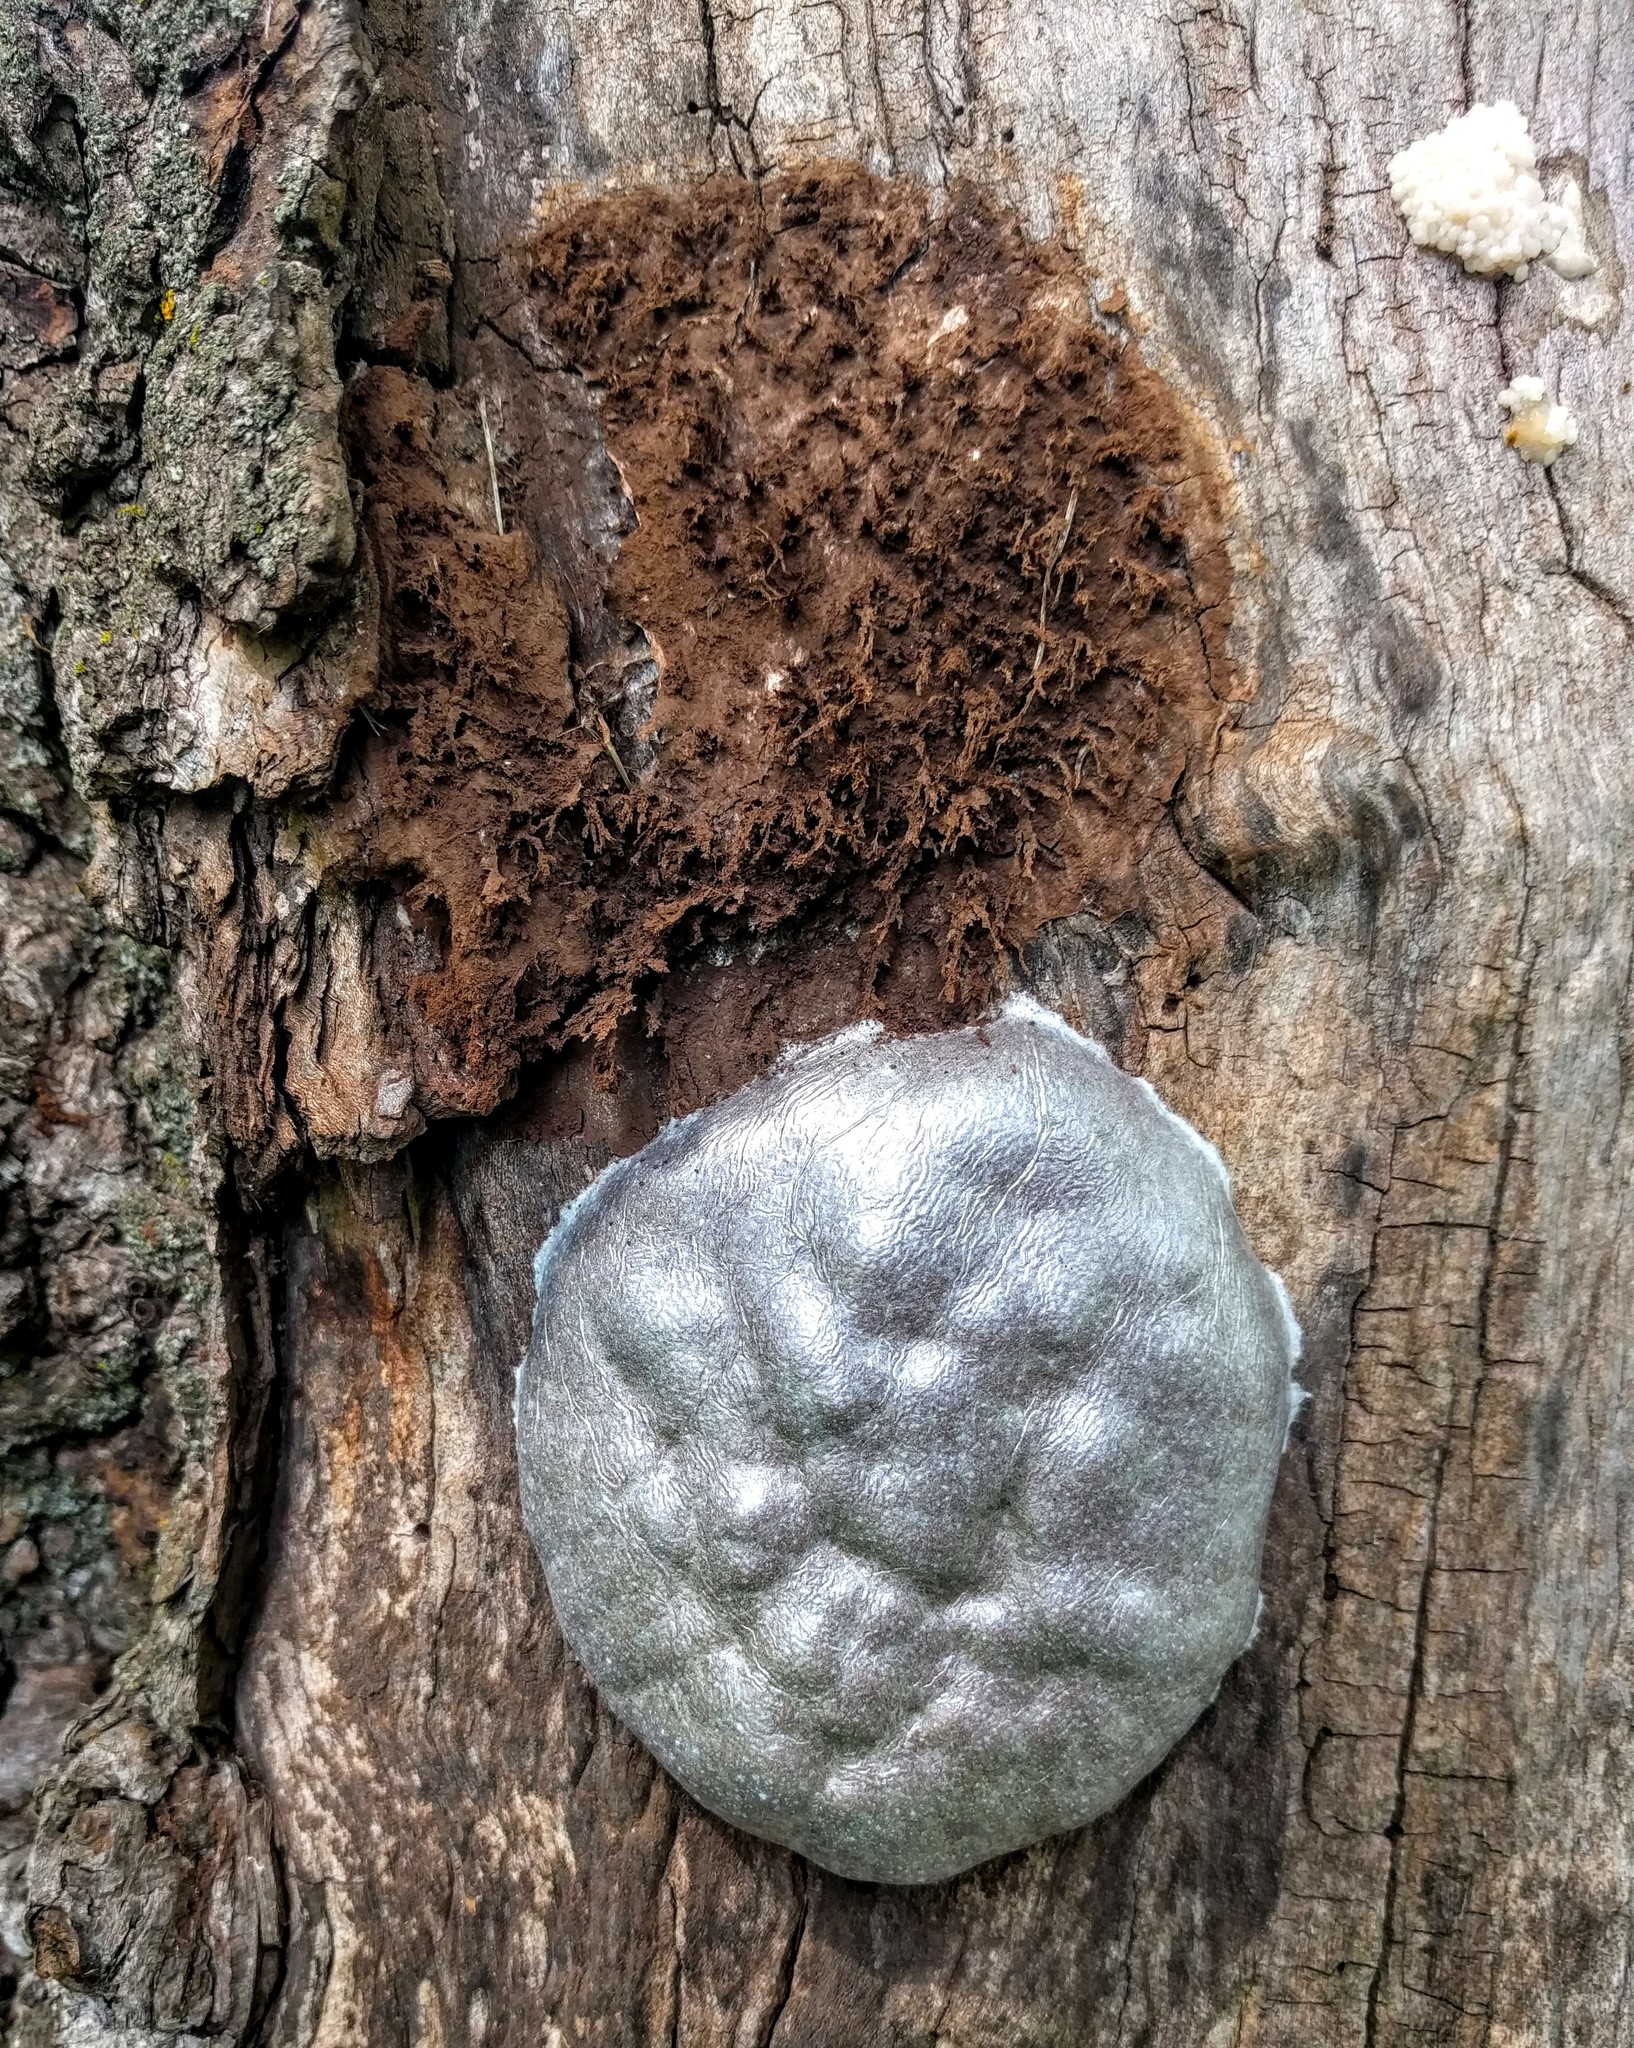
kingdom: Protozoa
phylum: Mycetozoa
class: Myxomycetes
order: Cribrariales
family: Tubiferaceae
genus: Reticularia
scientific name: Reticularia lycoperdon
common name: False puffball
